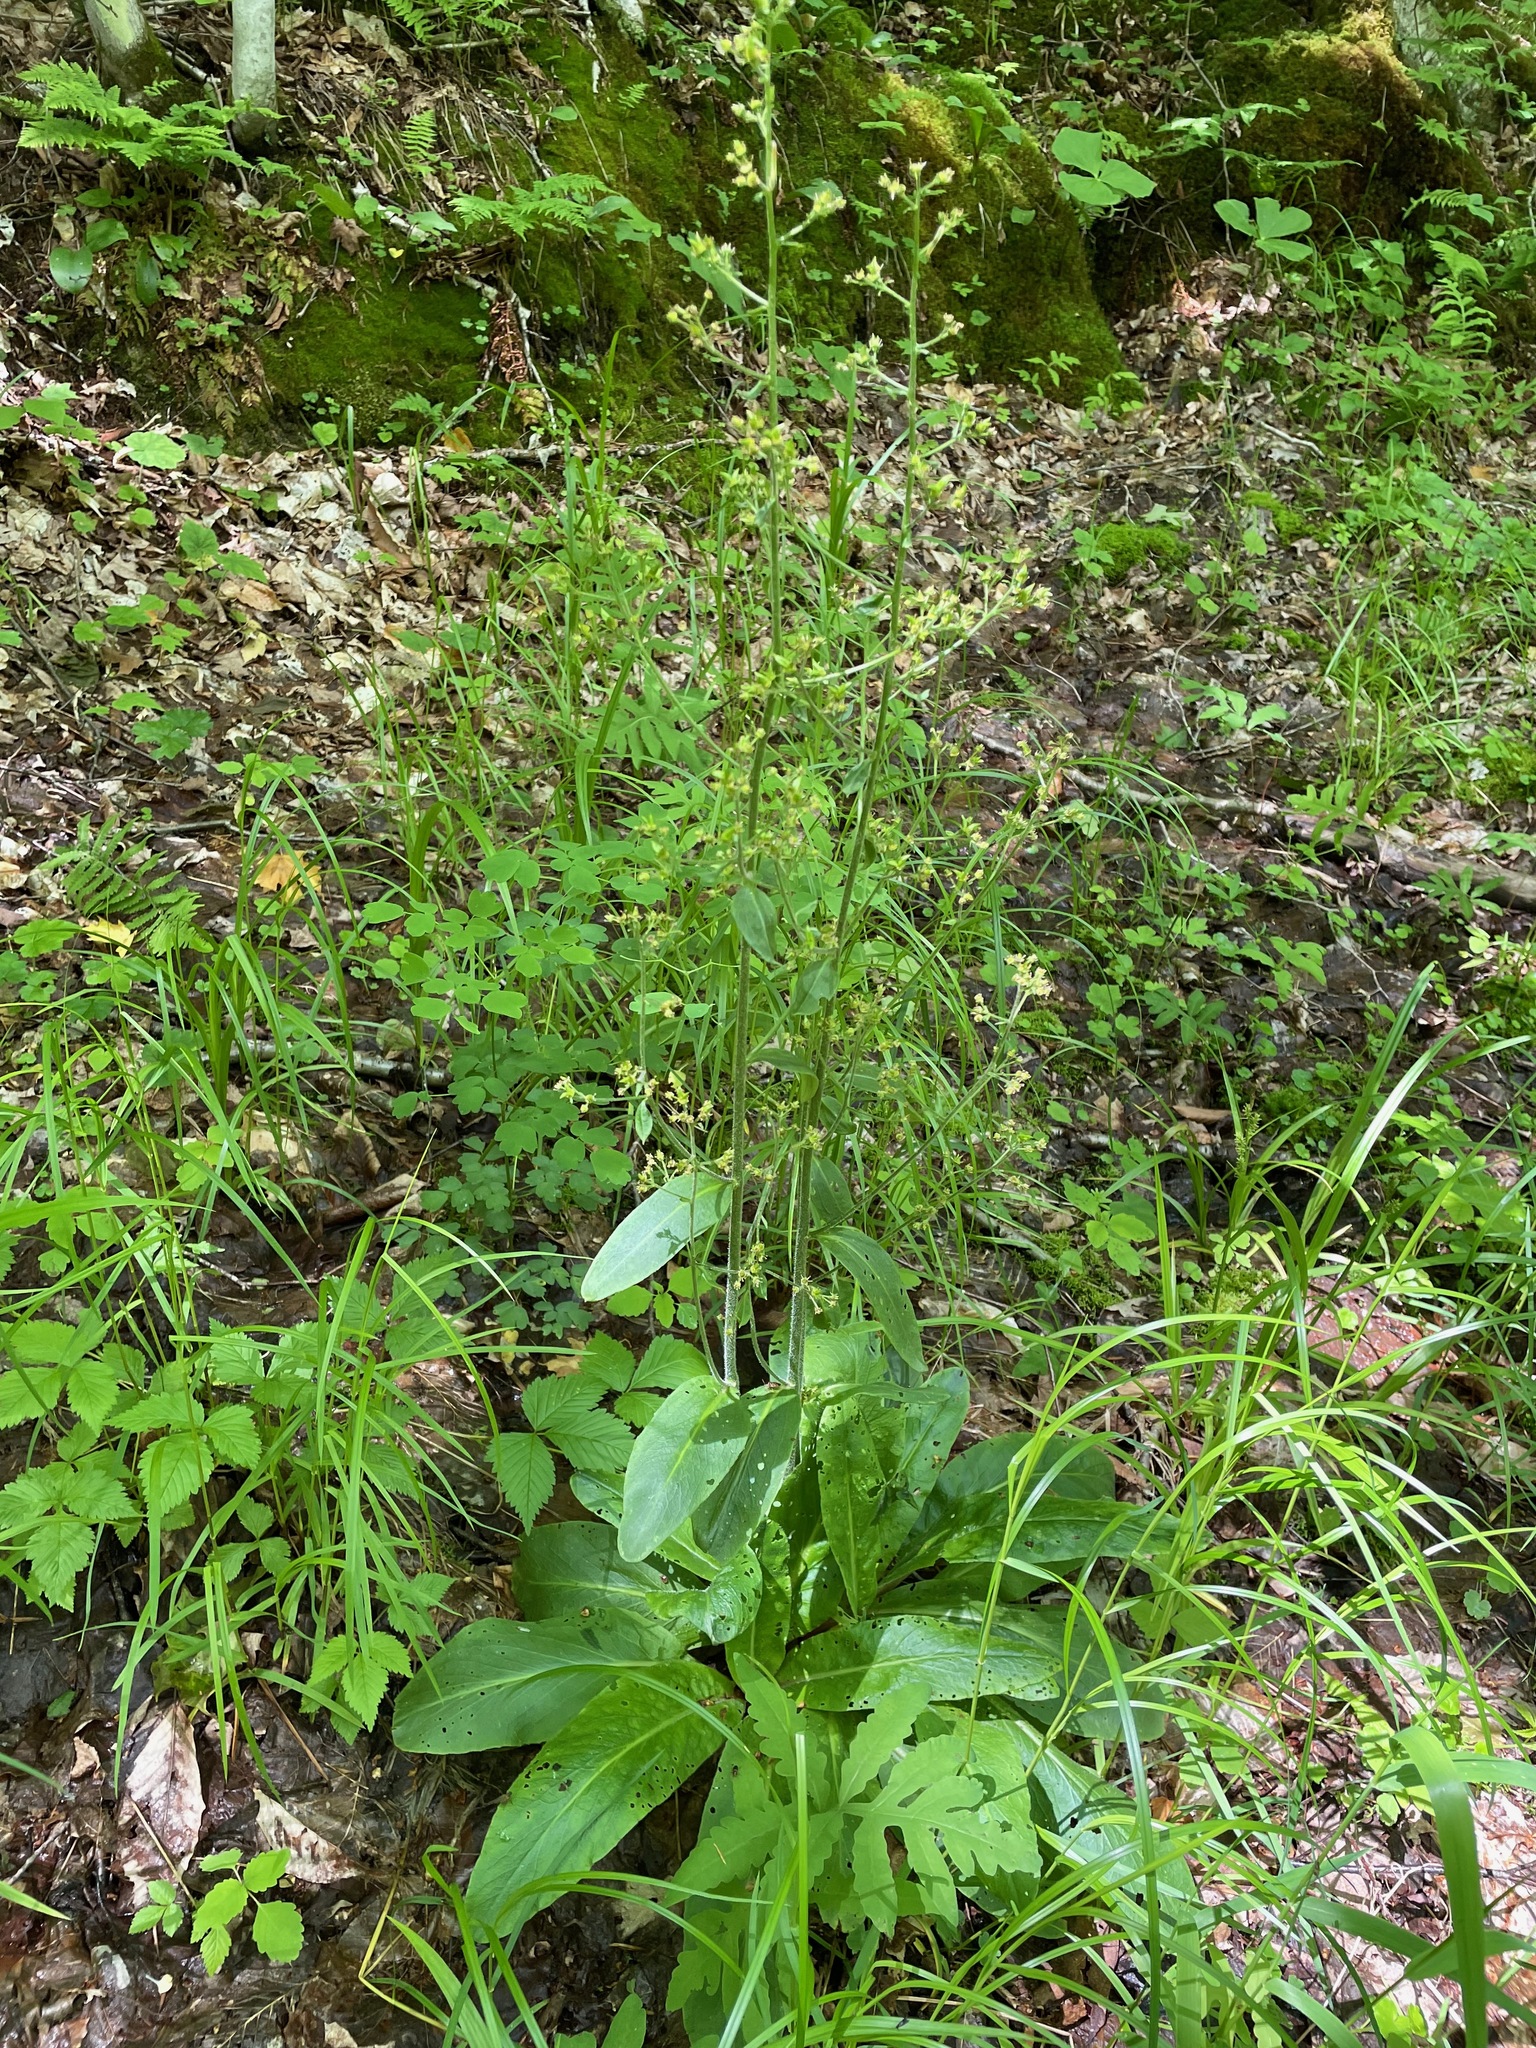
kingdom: Plantae
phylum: Tracheophyta
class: Magnoliopsida
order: Saxifragales
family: Saxifragaceae
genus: Micranthes
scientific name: Micranthes pensylvanica
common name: Marsh saxifrage
